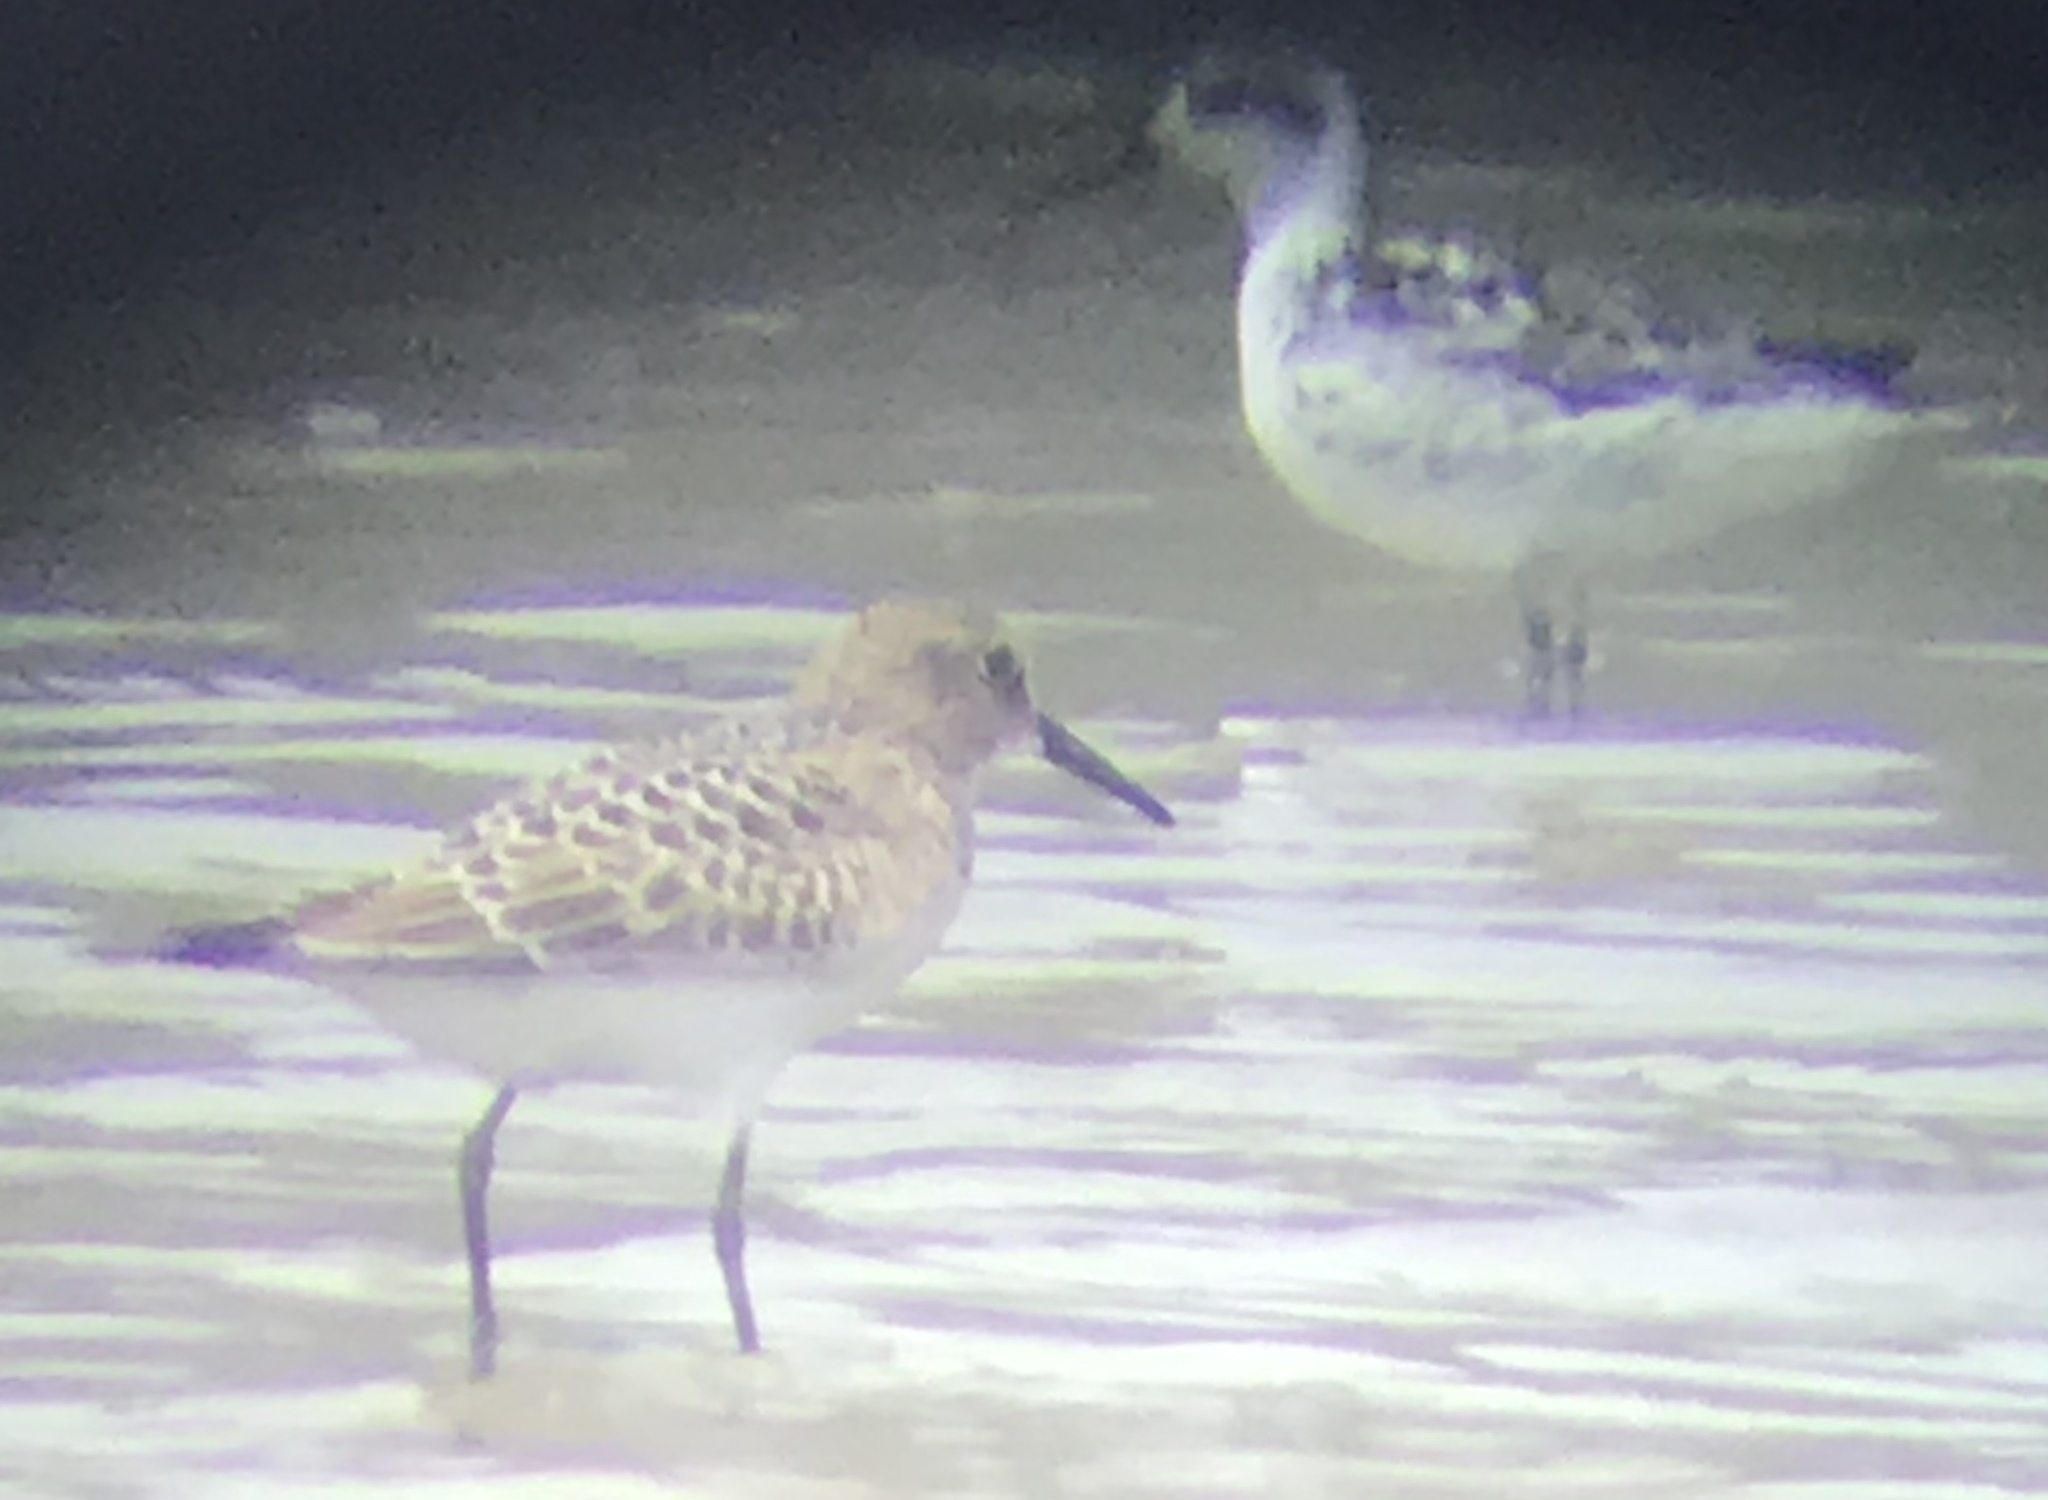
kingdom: Animalia
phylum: Chordata
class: Aves
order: Charadriiformes
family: Scolopacidae
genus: Phalaropus
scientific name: Phalaropus lobatus
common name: Red-necked phalarope
